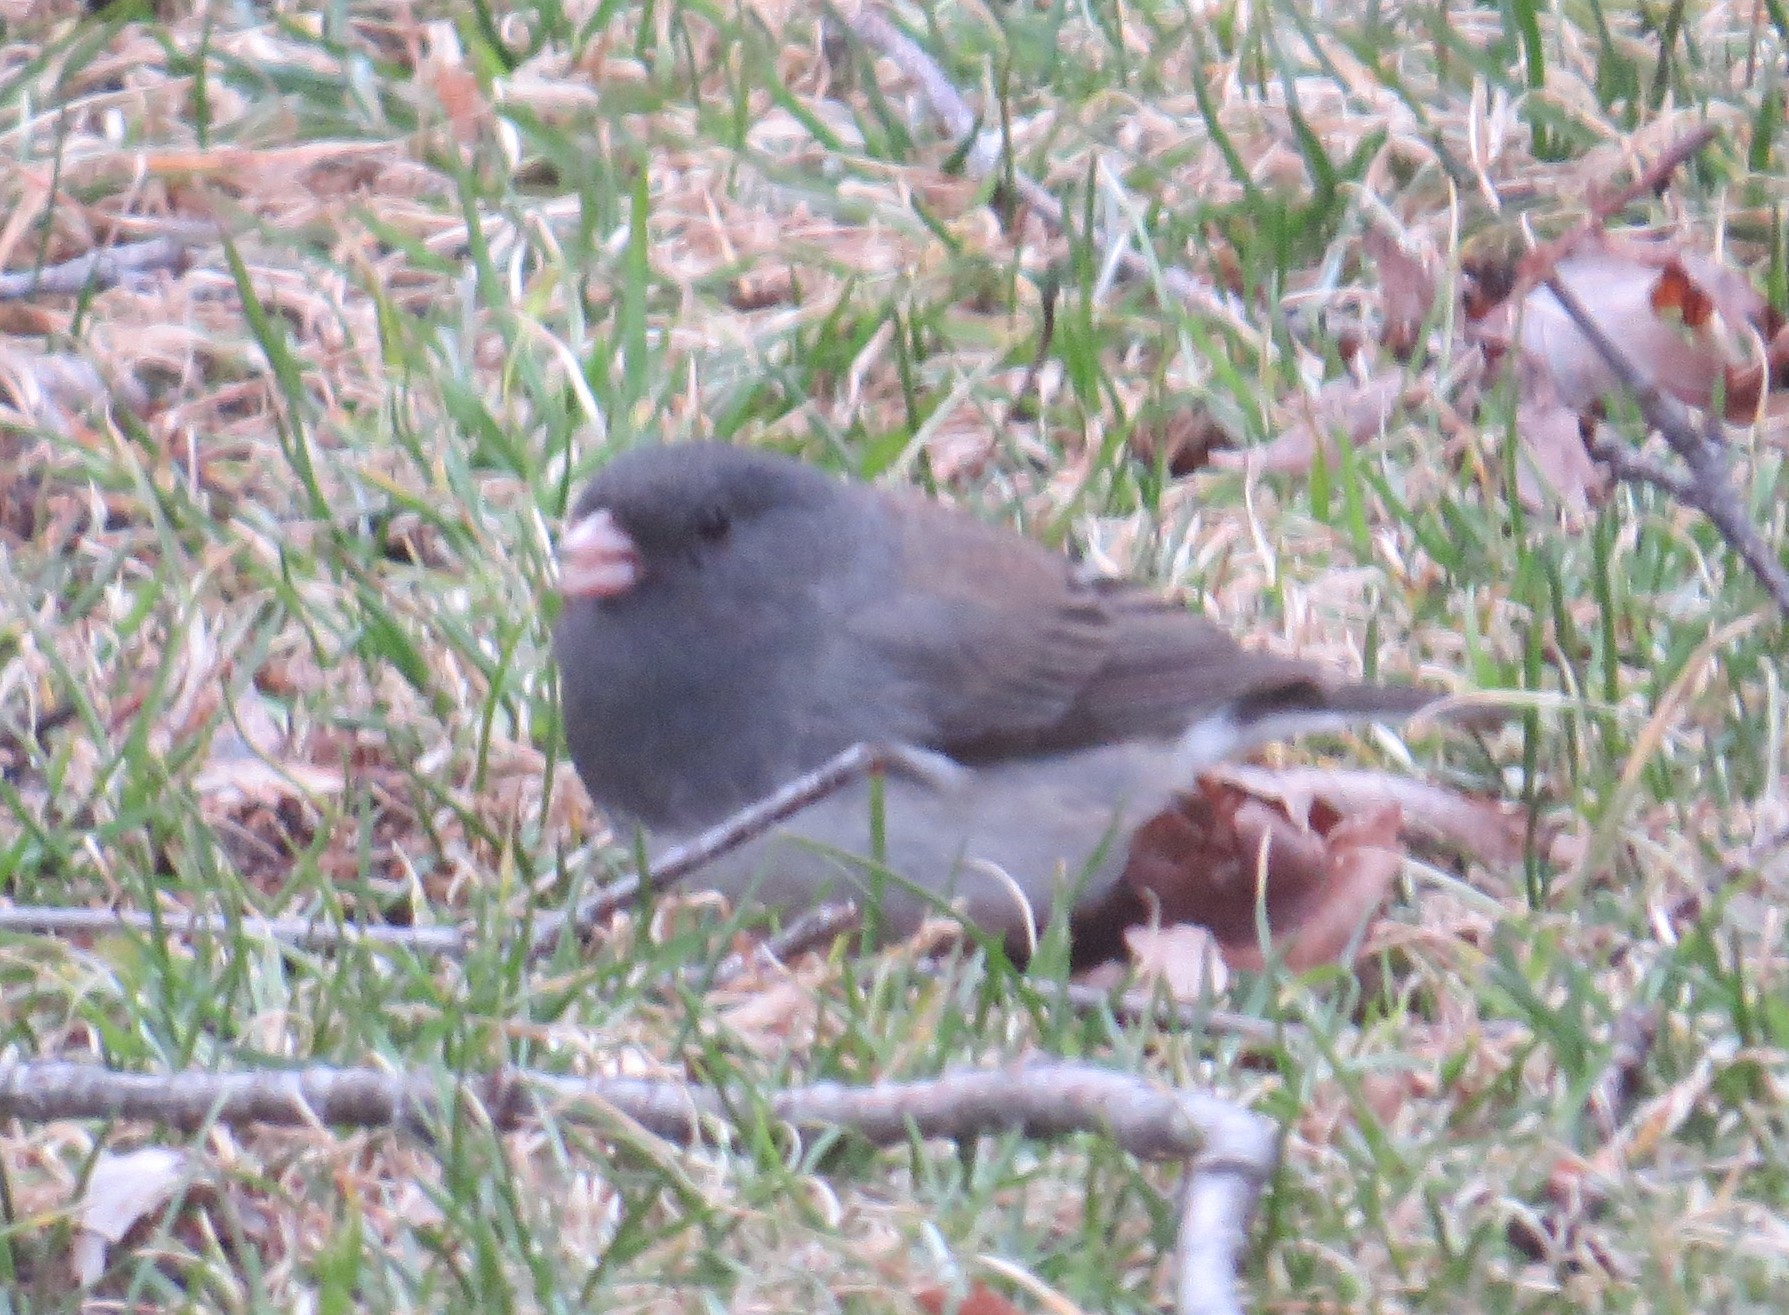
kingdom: Animalia
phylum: Chordata
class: Aves
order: Passeriformes
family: Passerellidae
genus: Junco
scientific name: Junco hyemalis
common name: Dark-eyed junco
